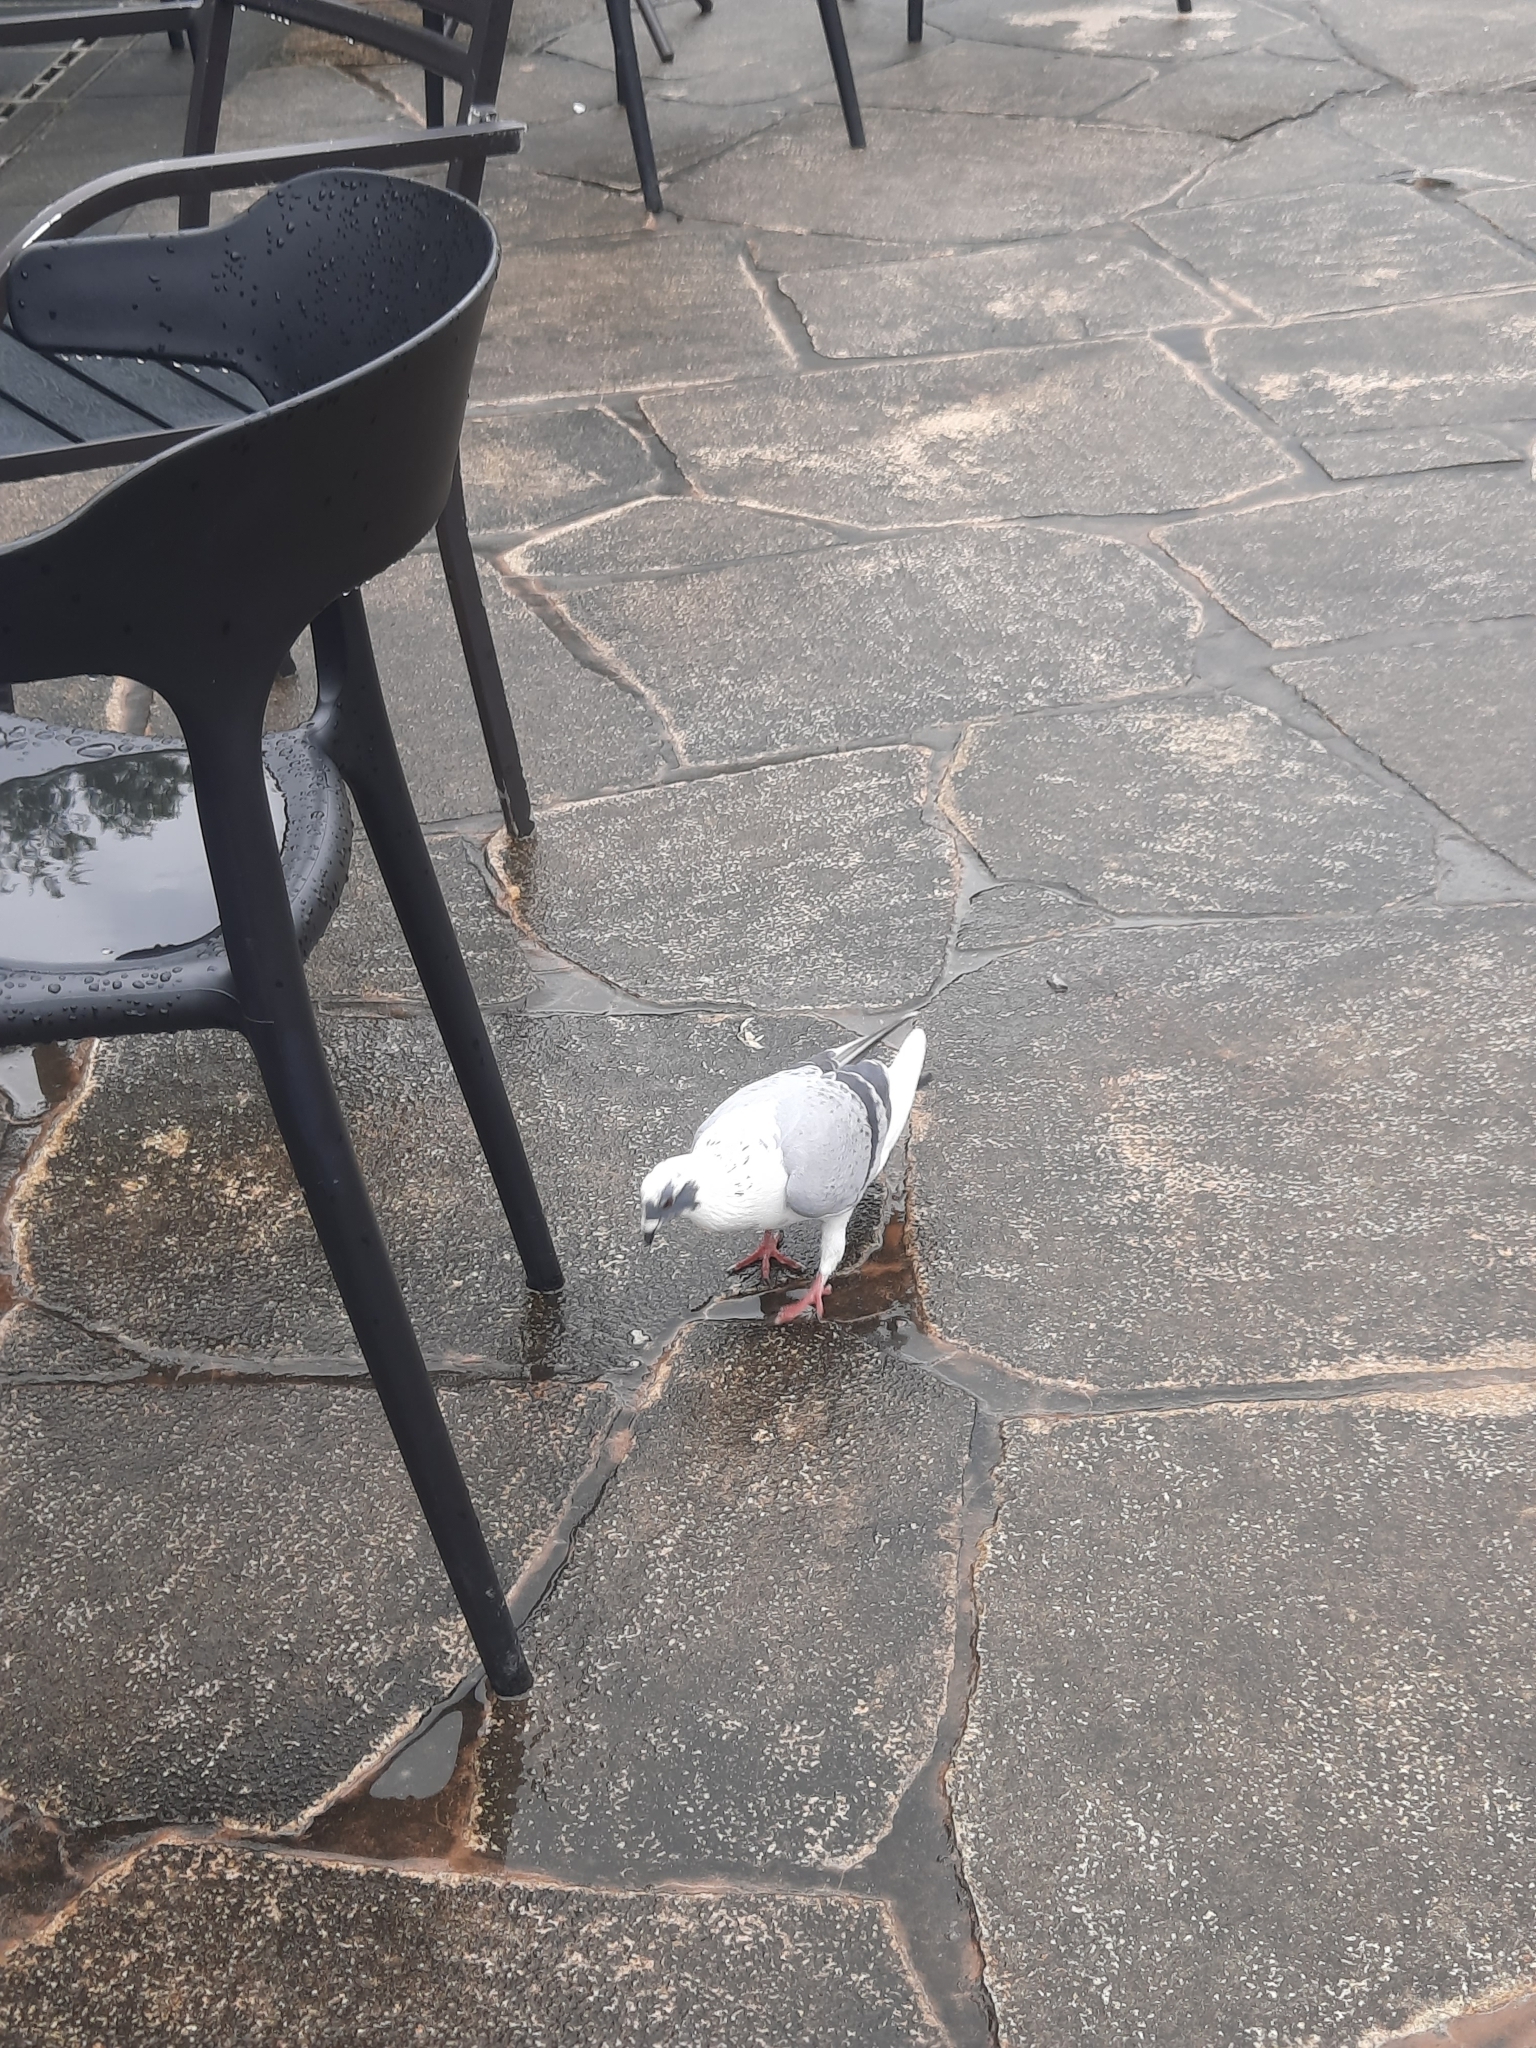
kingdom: Animalia
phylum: Chordata
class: Aves
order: Columbiformes
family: Columbidae
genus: Columba
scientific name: Columba livia
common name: Rock pigeon
